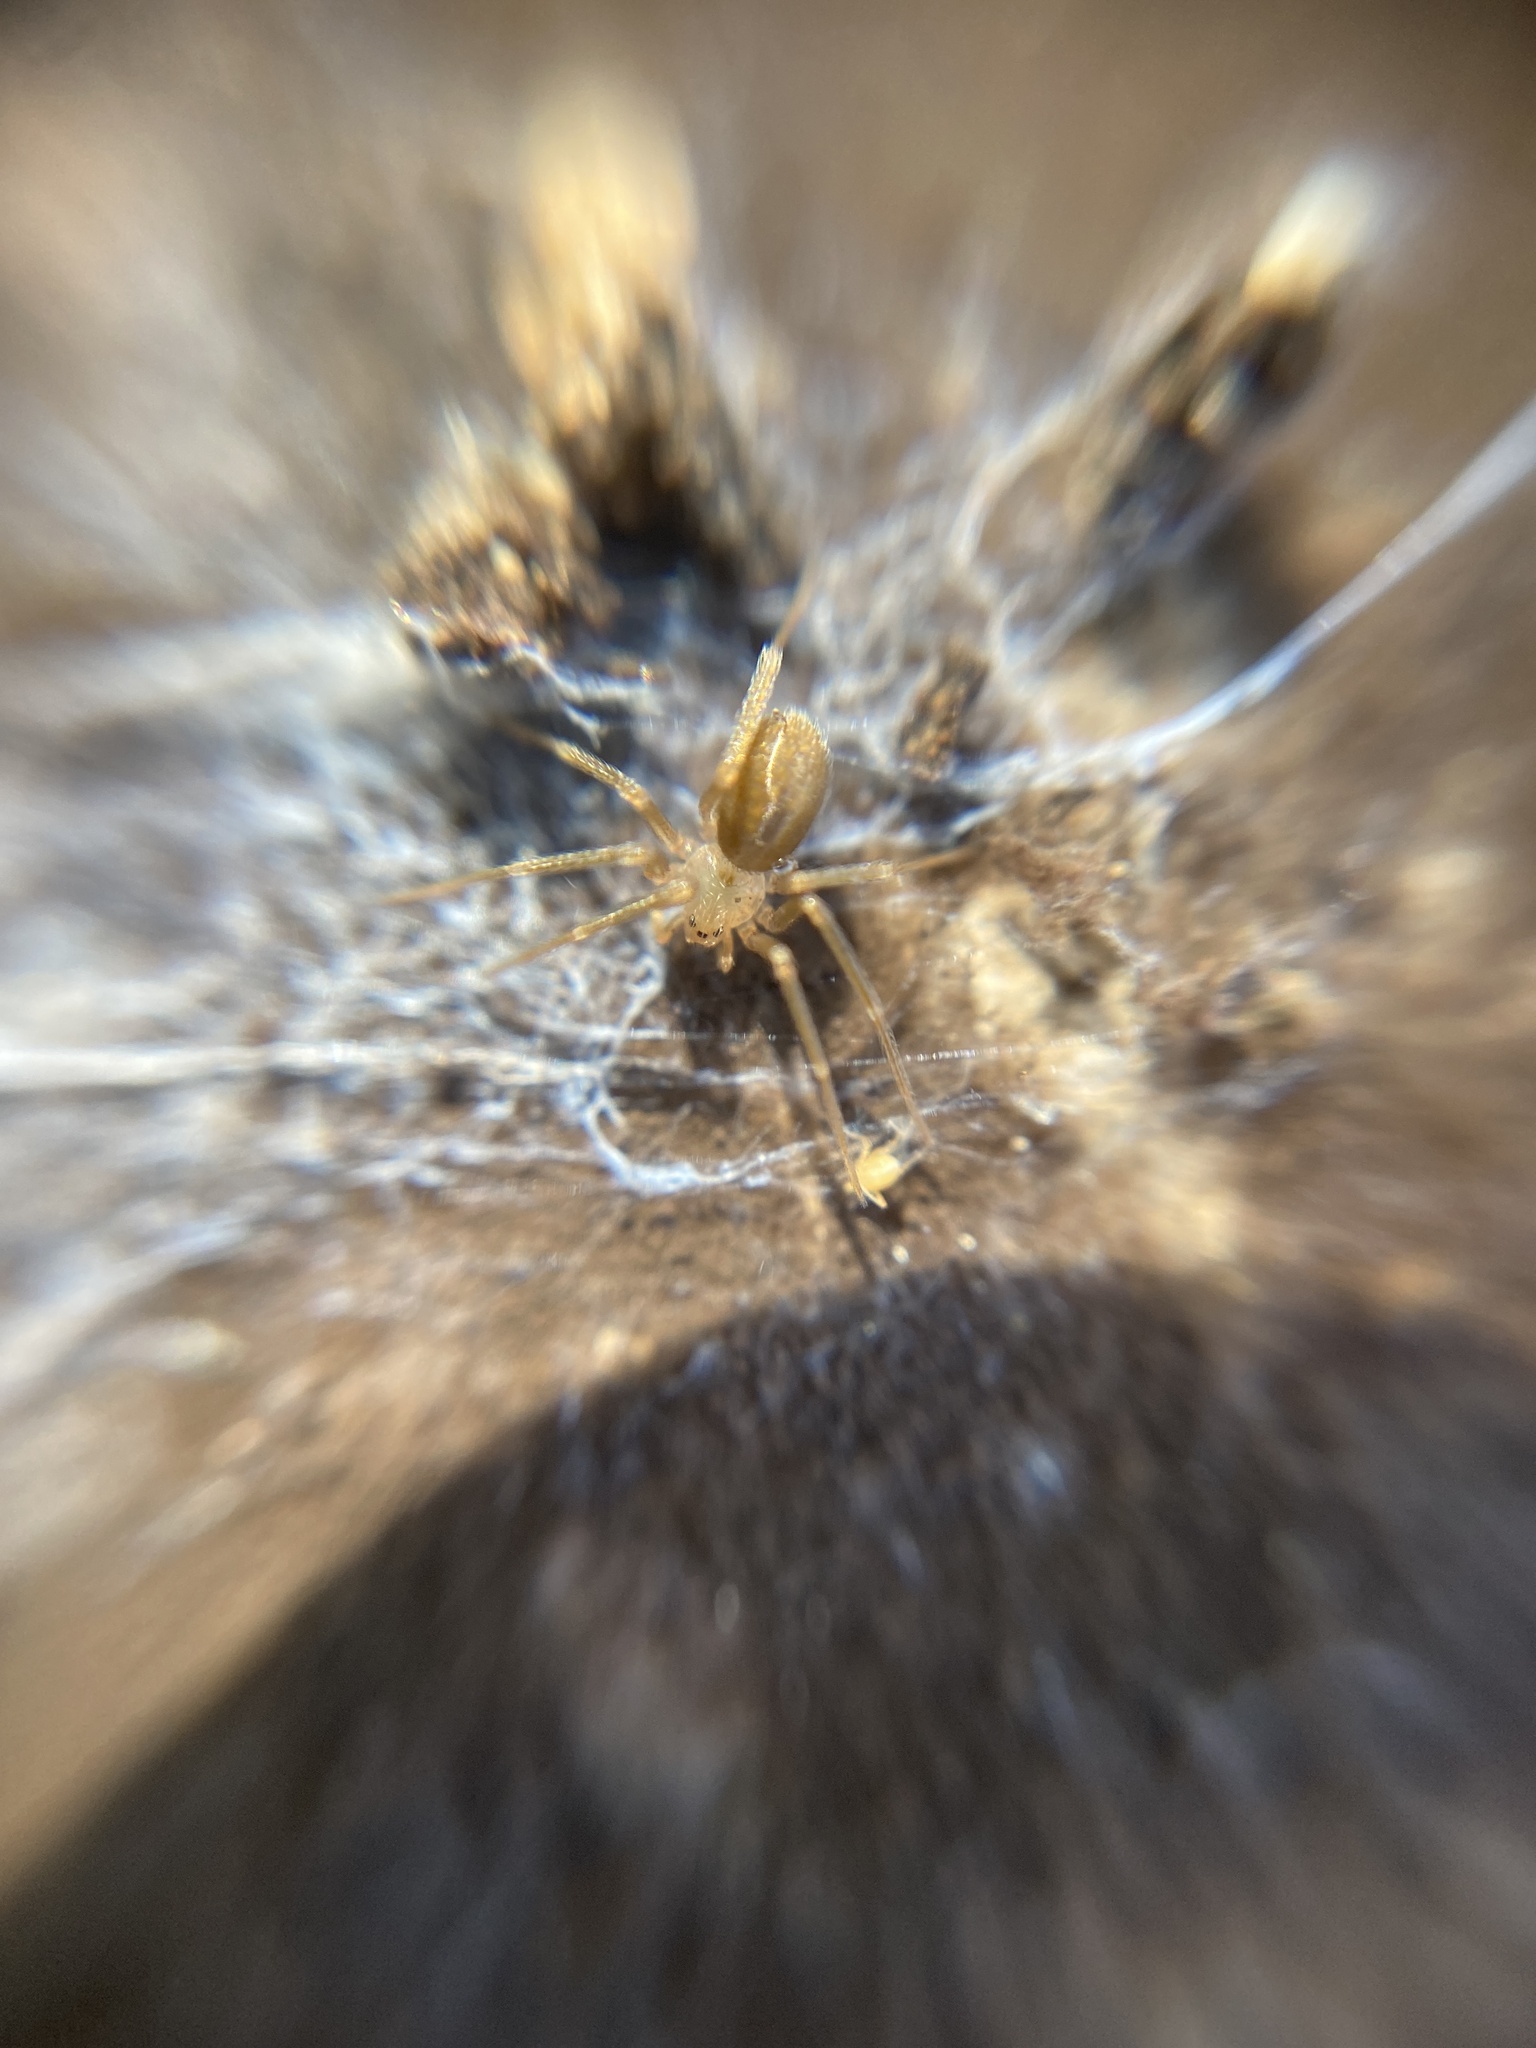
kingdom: Animalia
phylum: Arthropoda
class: Arachnida
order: Araneae
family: Sicariidae
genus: Loxosceles
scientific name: Loxosceles rufescens
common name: Mediterranean recluse spider
